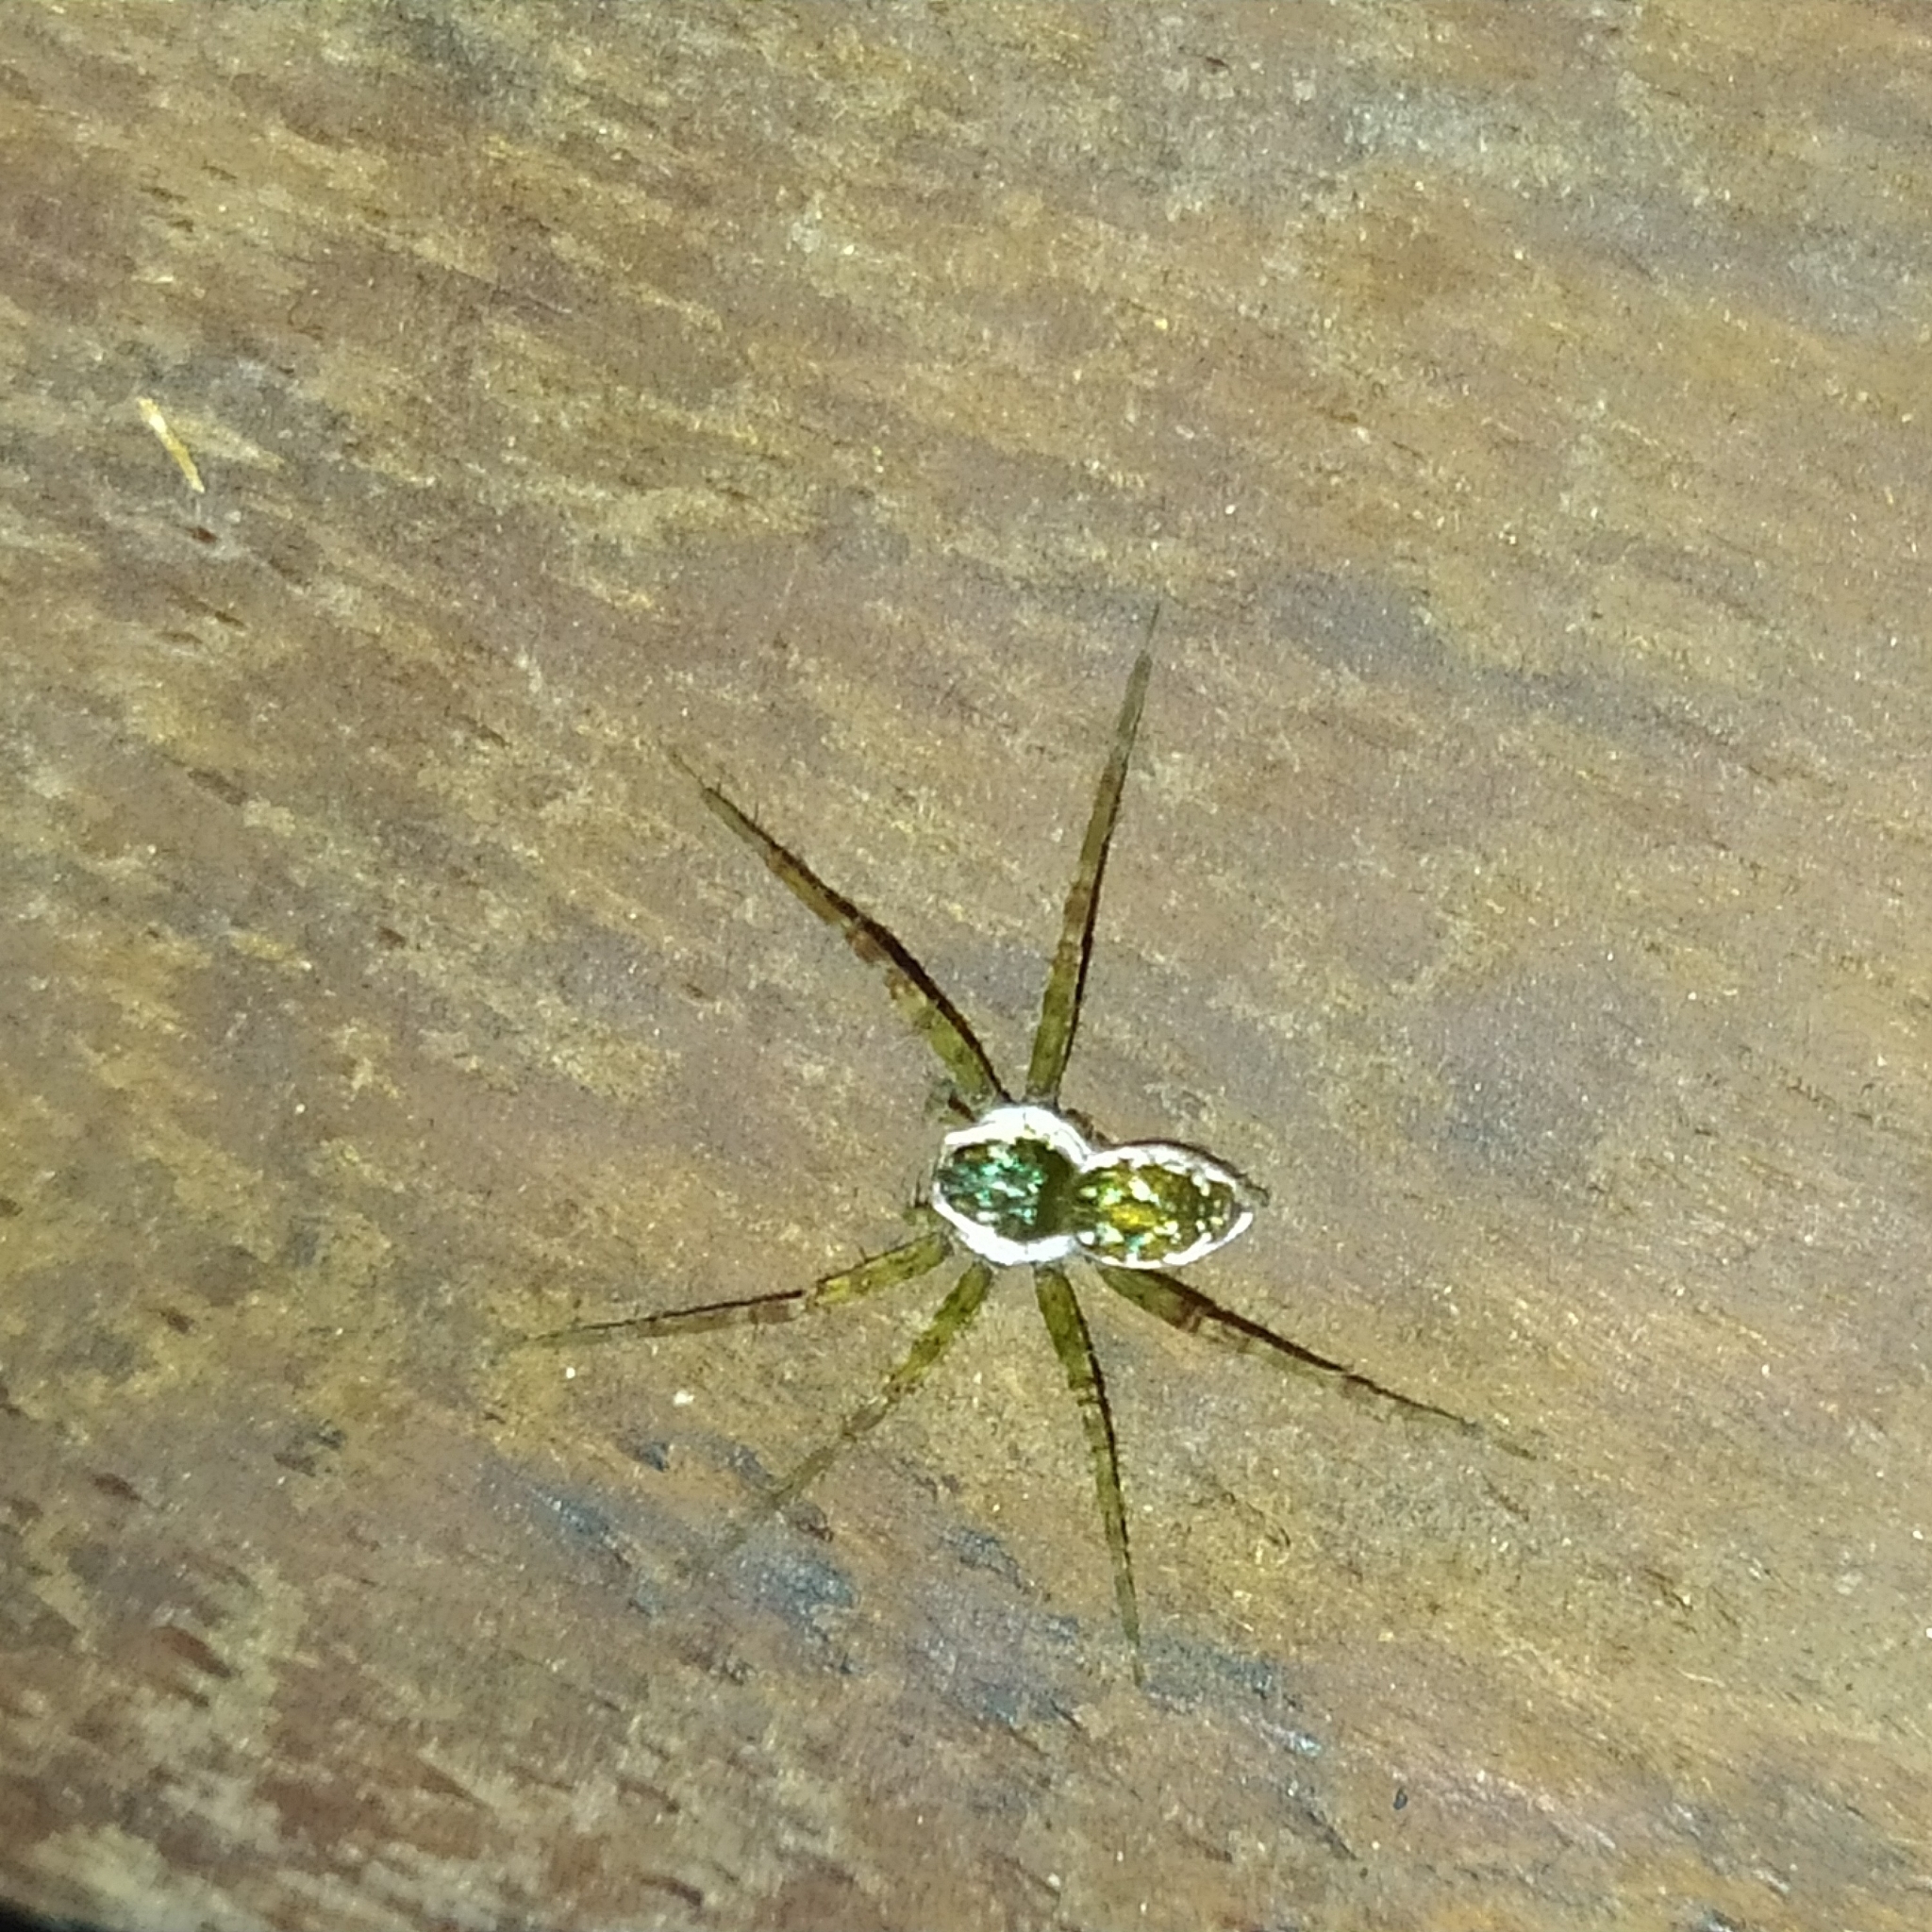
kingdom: Animalia
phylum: Arthropoda
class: Arachnida
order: Araneae
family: Pisauridae
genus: Thaumasia
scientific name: Thaumasia
